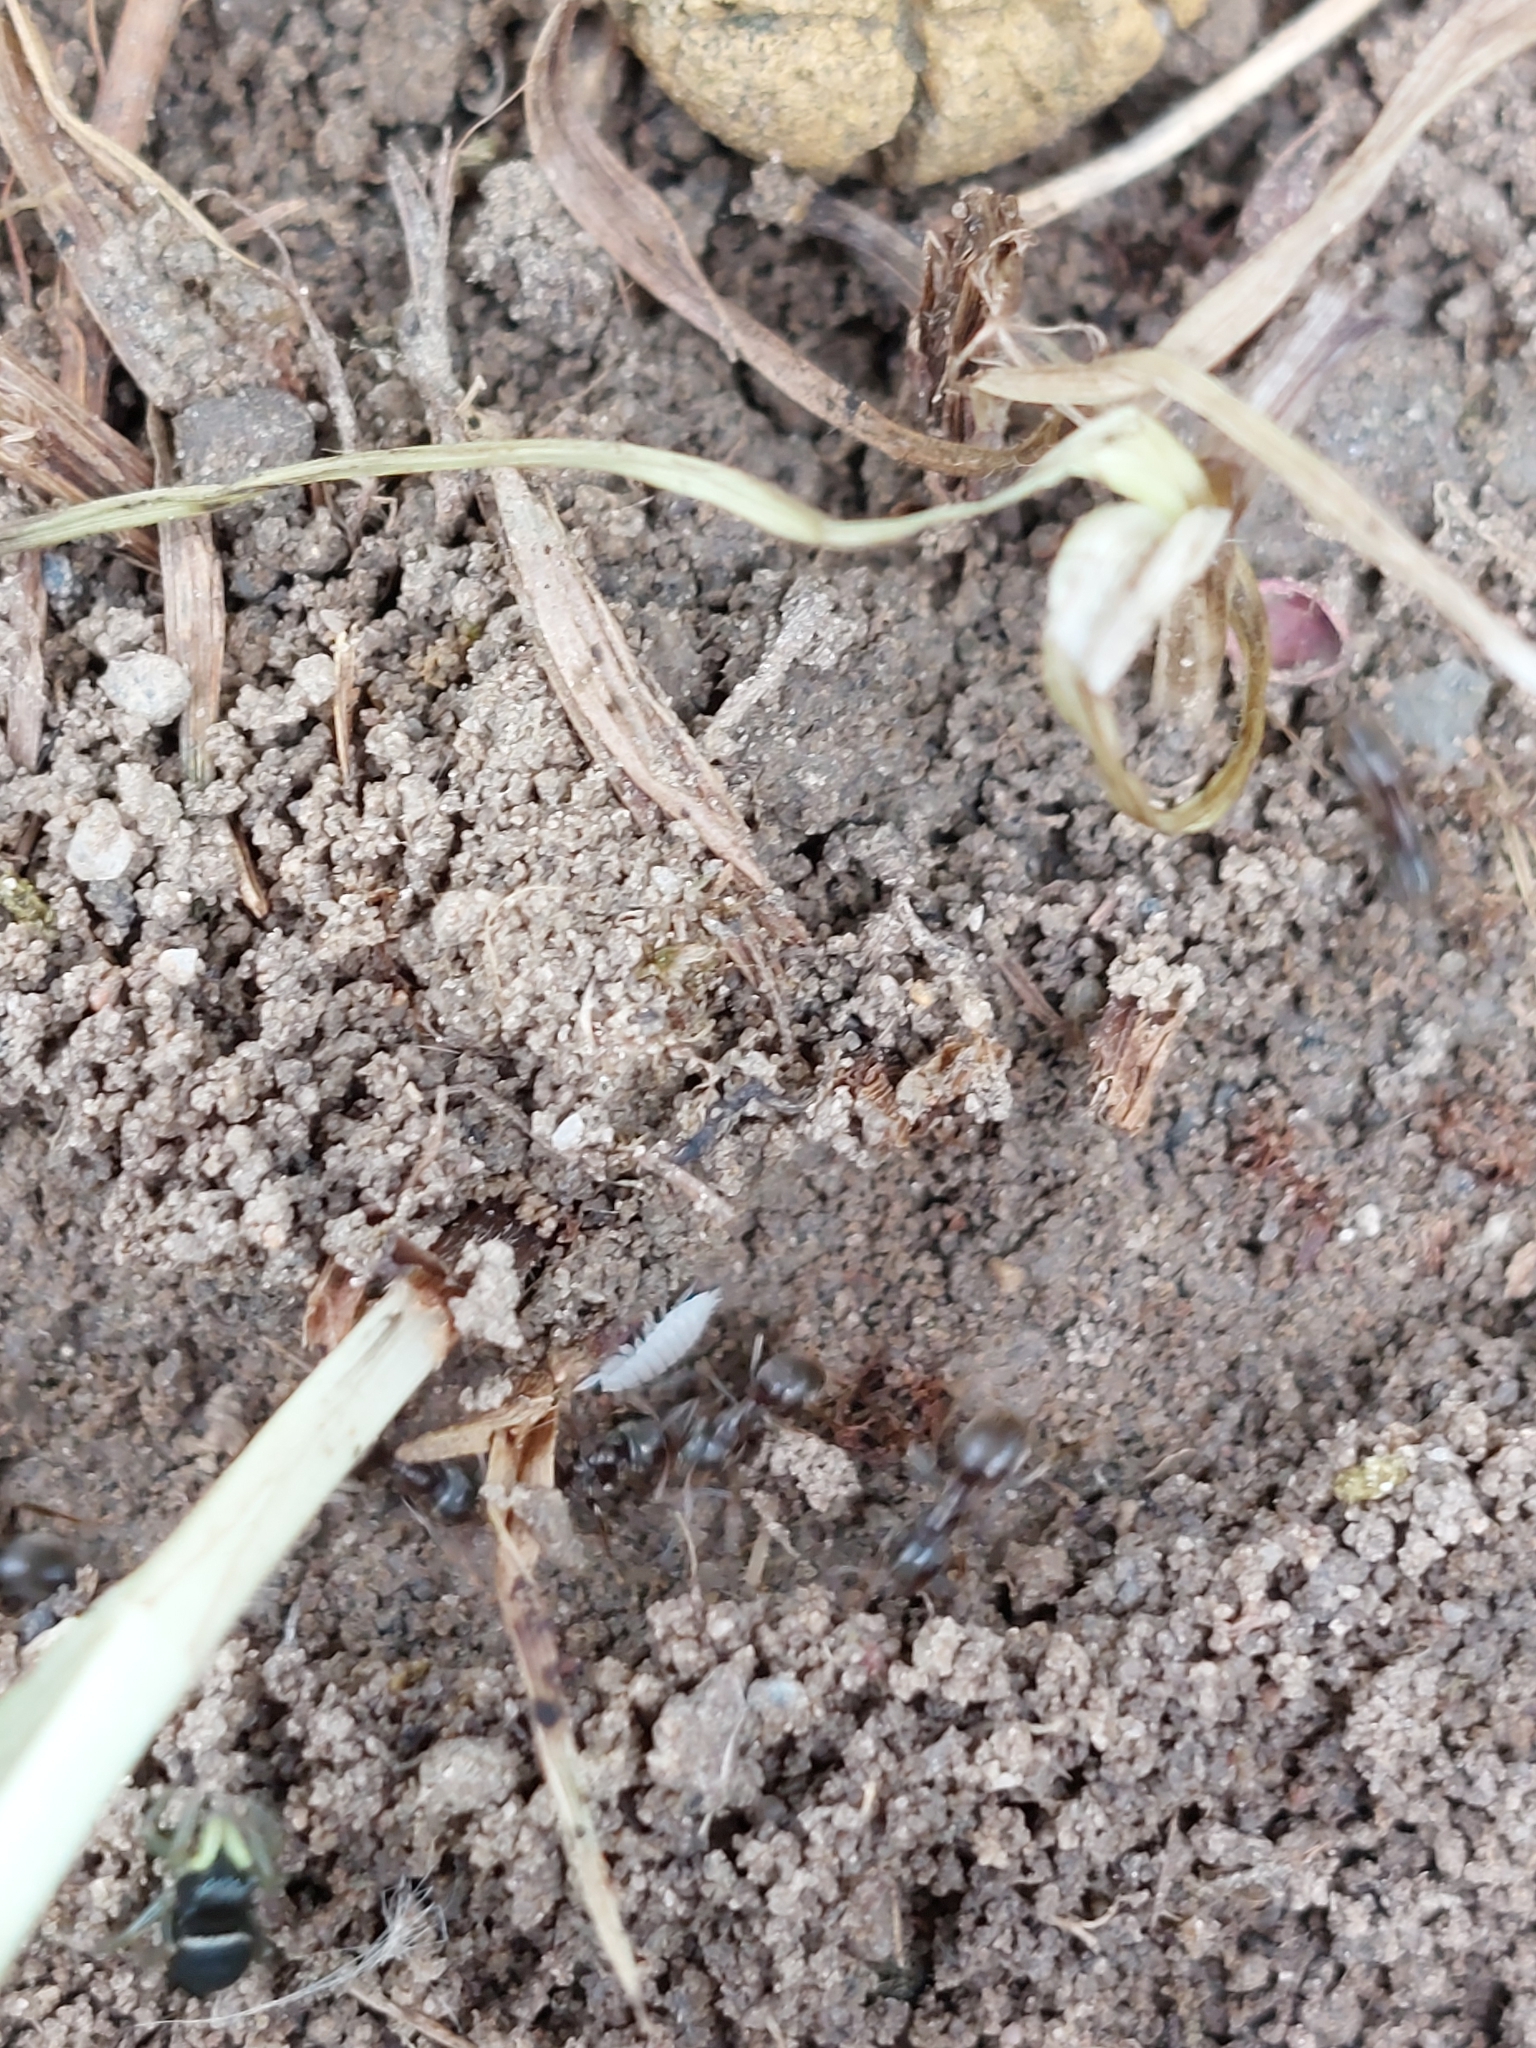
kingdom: Animalia
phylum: Arthropoda
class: Malacostraca
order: Isopoda
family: Platyarthridae
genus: Platyarthrus
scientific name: Platyarthrus hoffmannseggii
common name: Ant woodlouse
